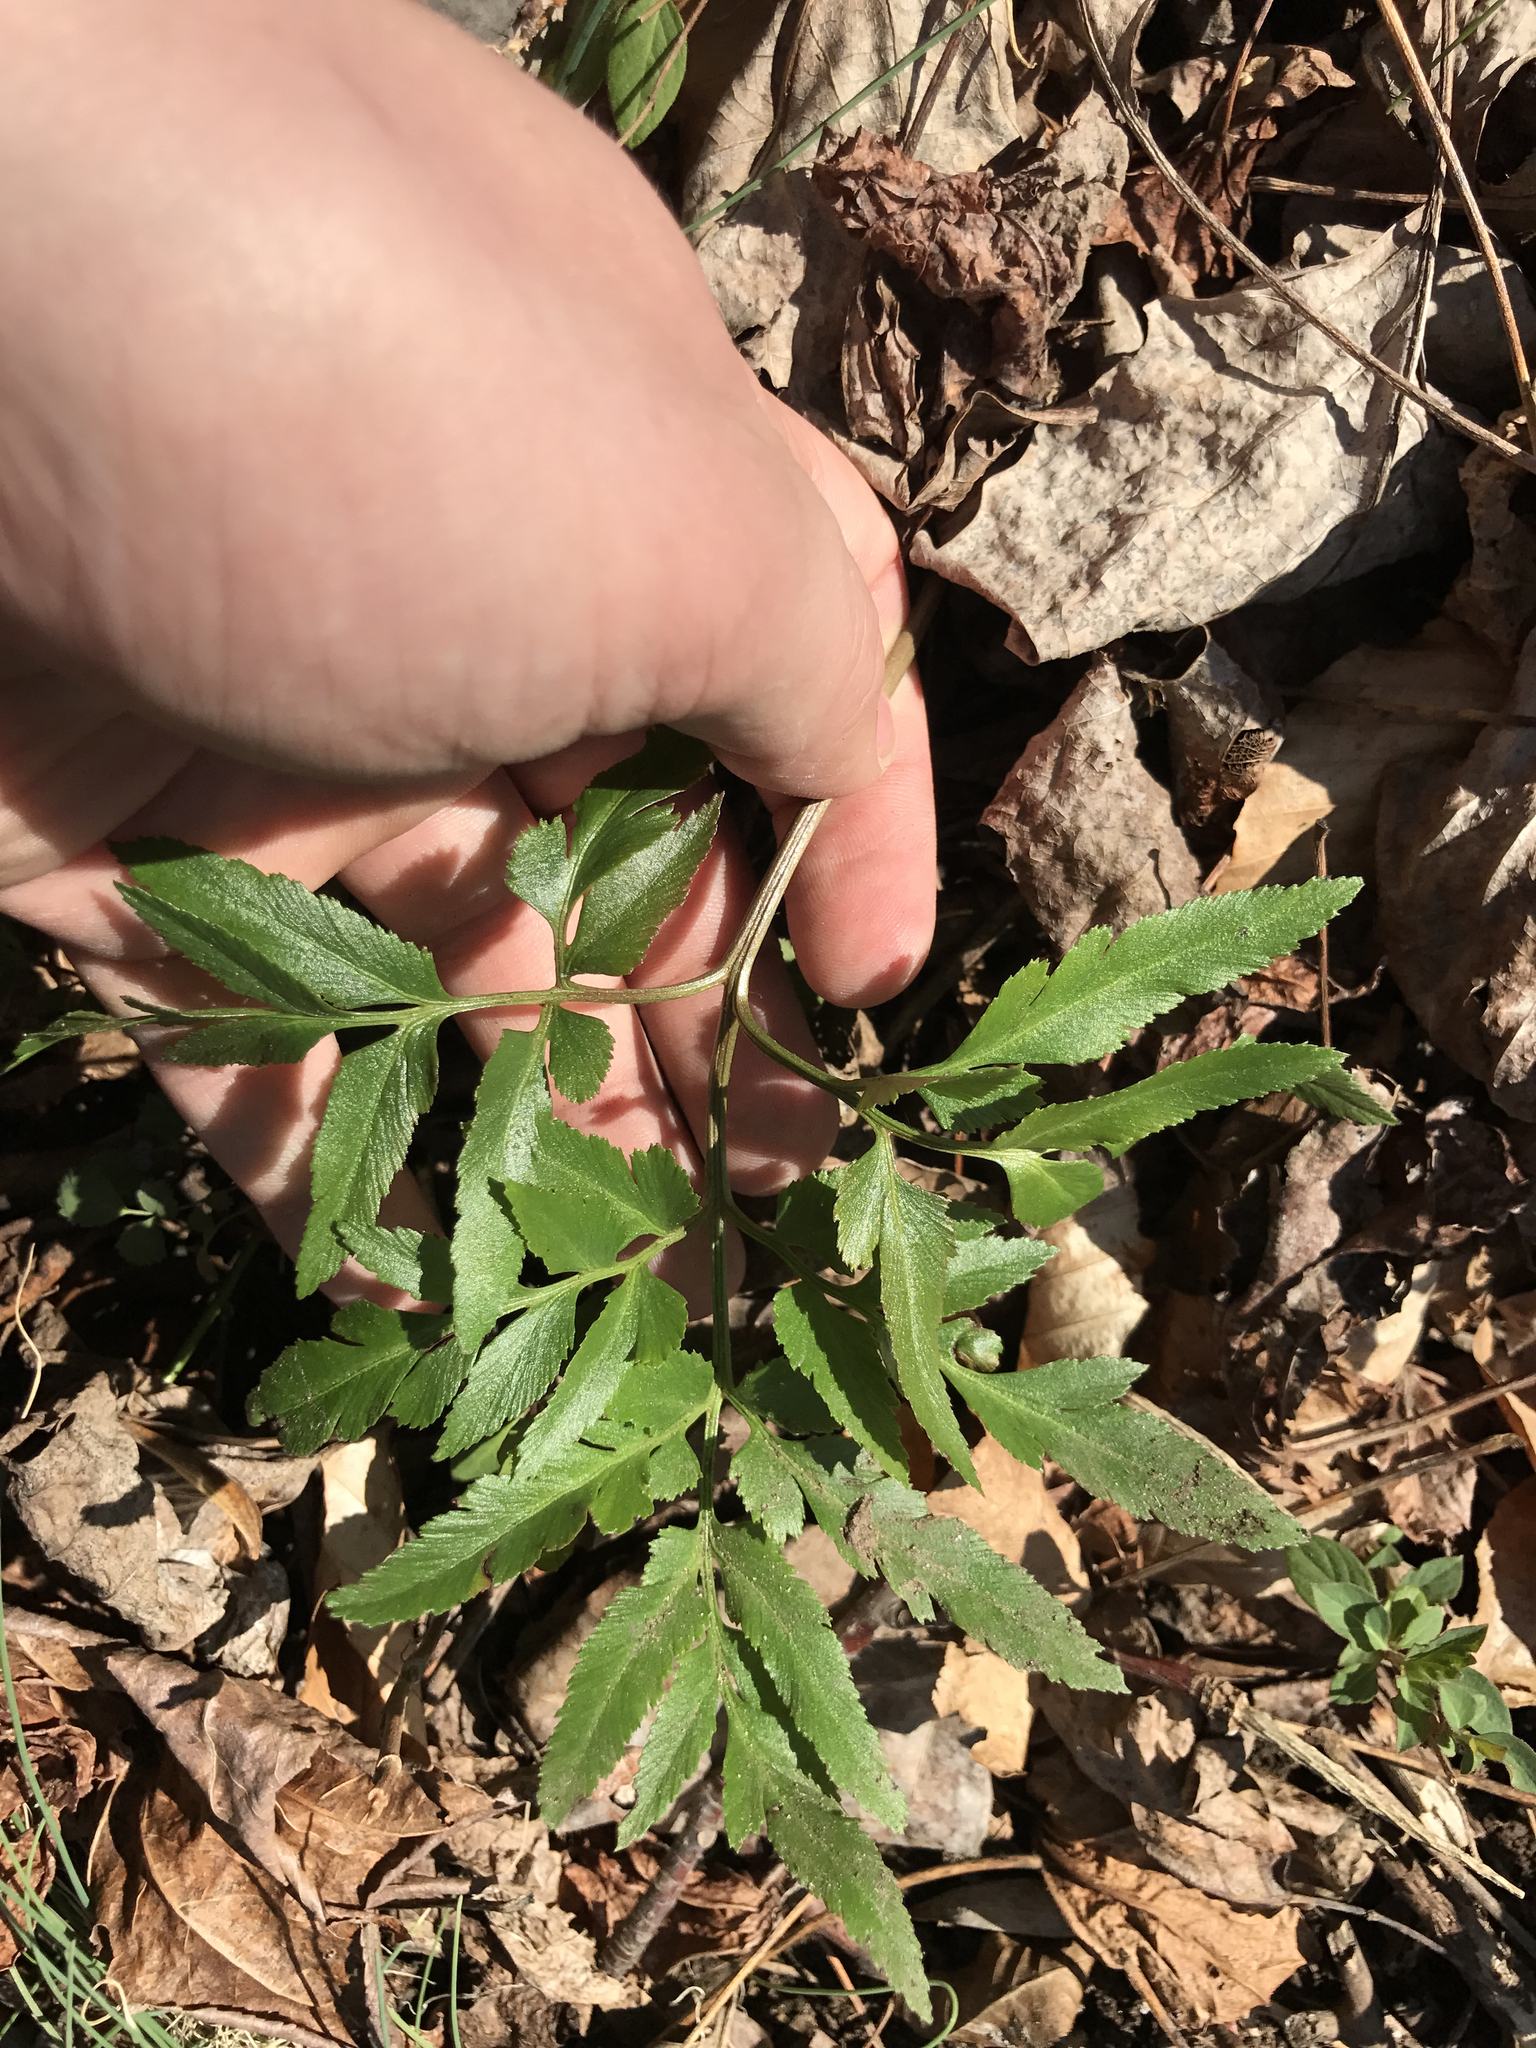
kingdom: Plantae
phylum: Tracheophyta
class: Polypodiopsida
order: Ophioglossales
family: Ophioglossaceae
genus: Sceptridium
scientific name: Sceptridium dissectum
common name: Cut-leaved grapefern
